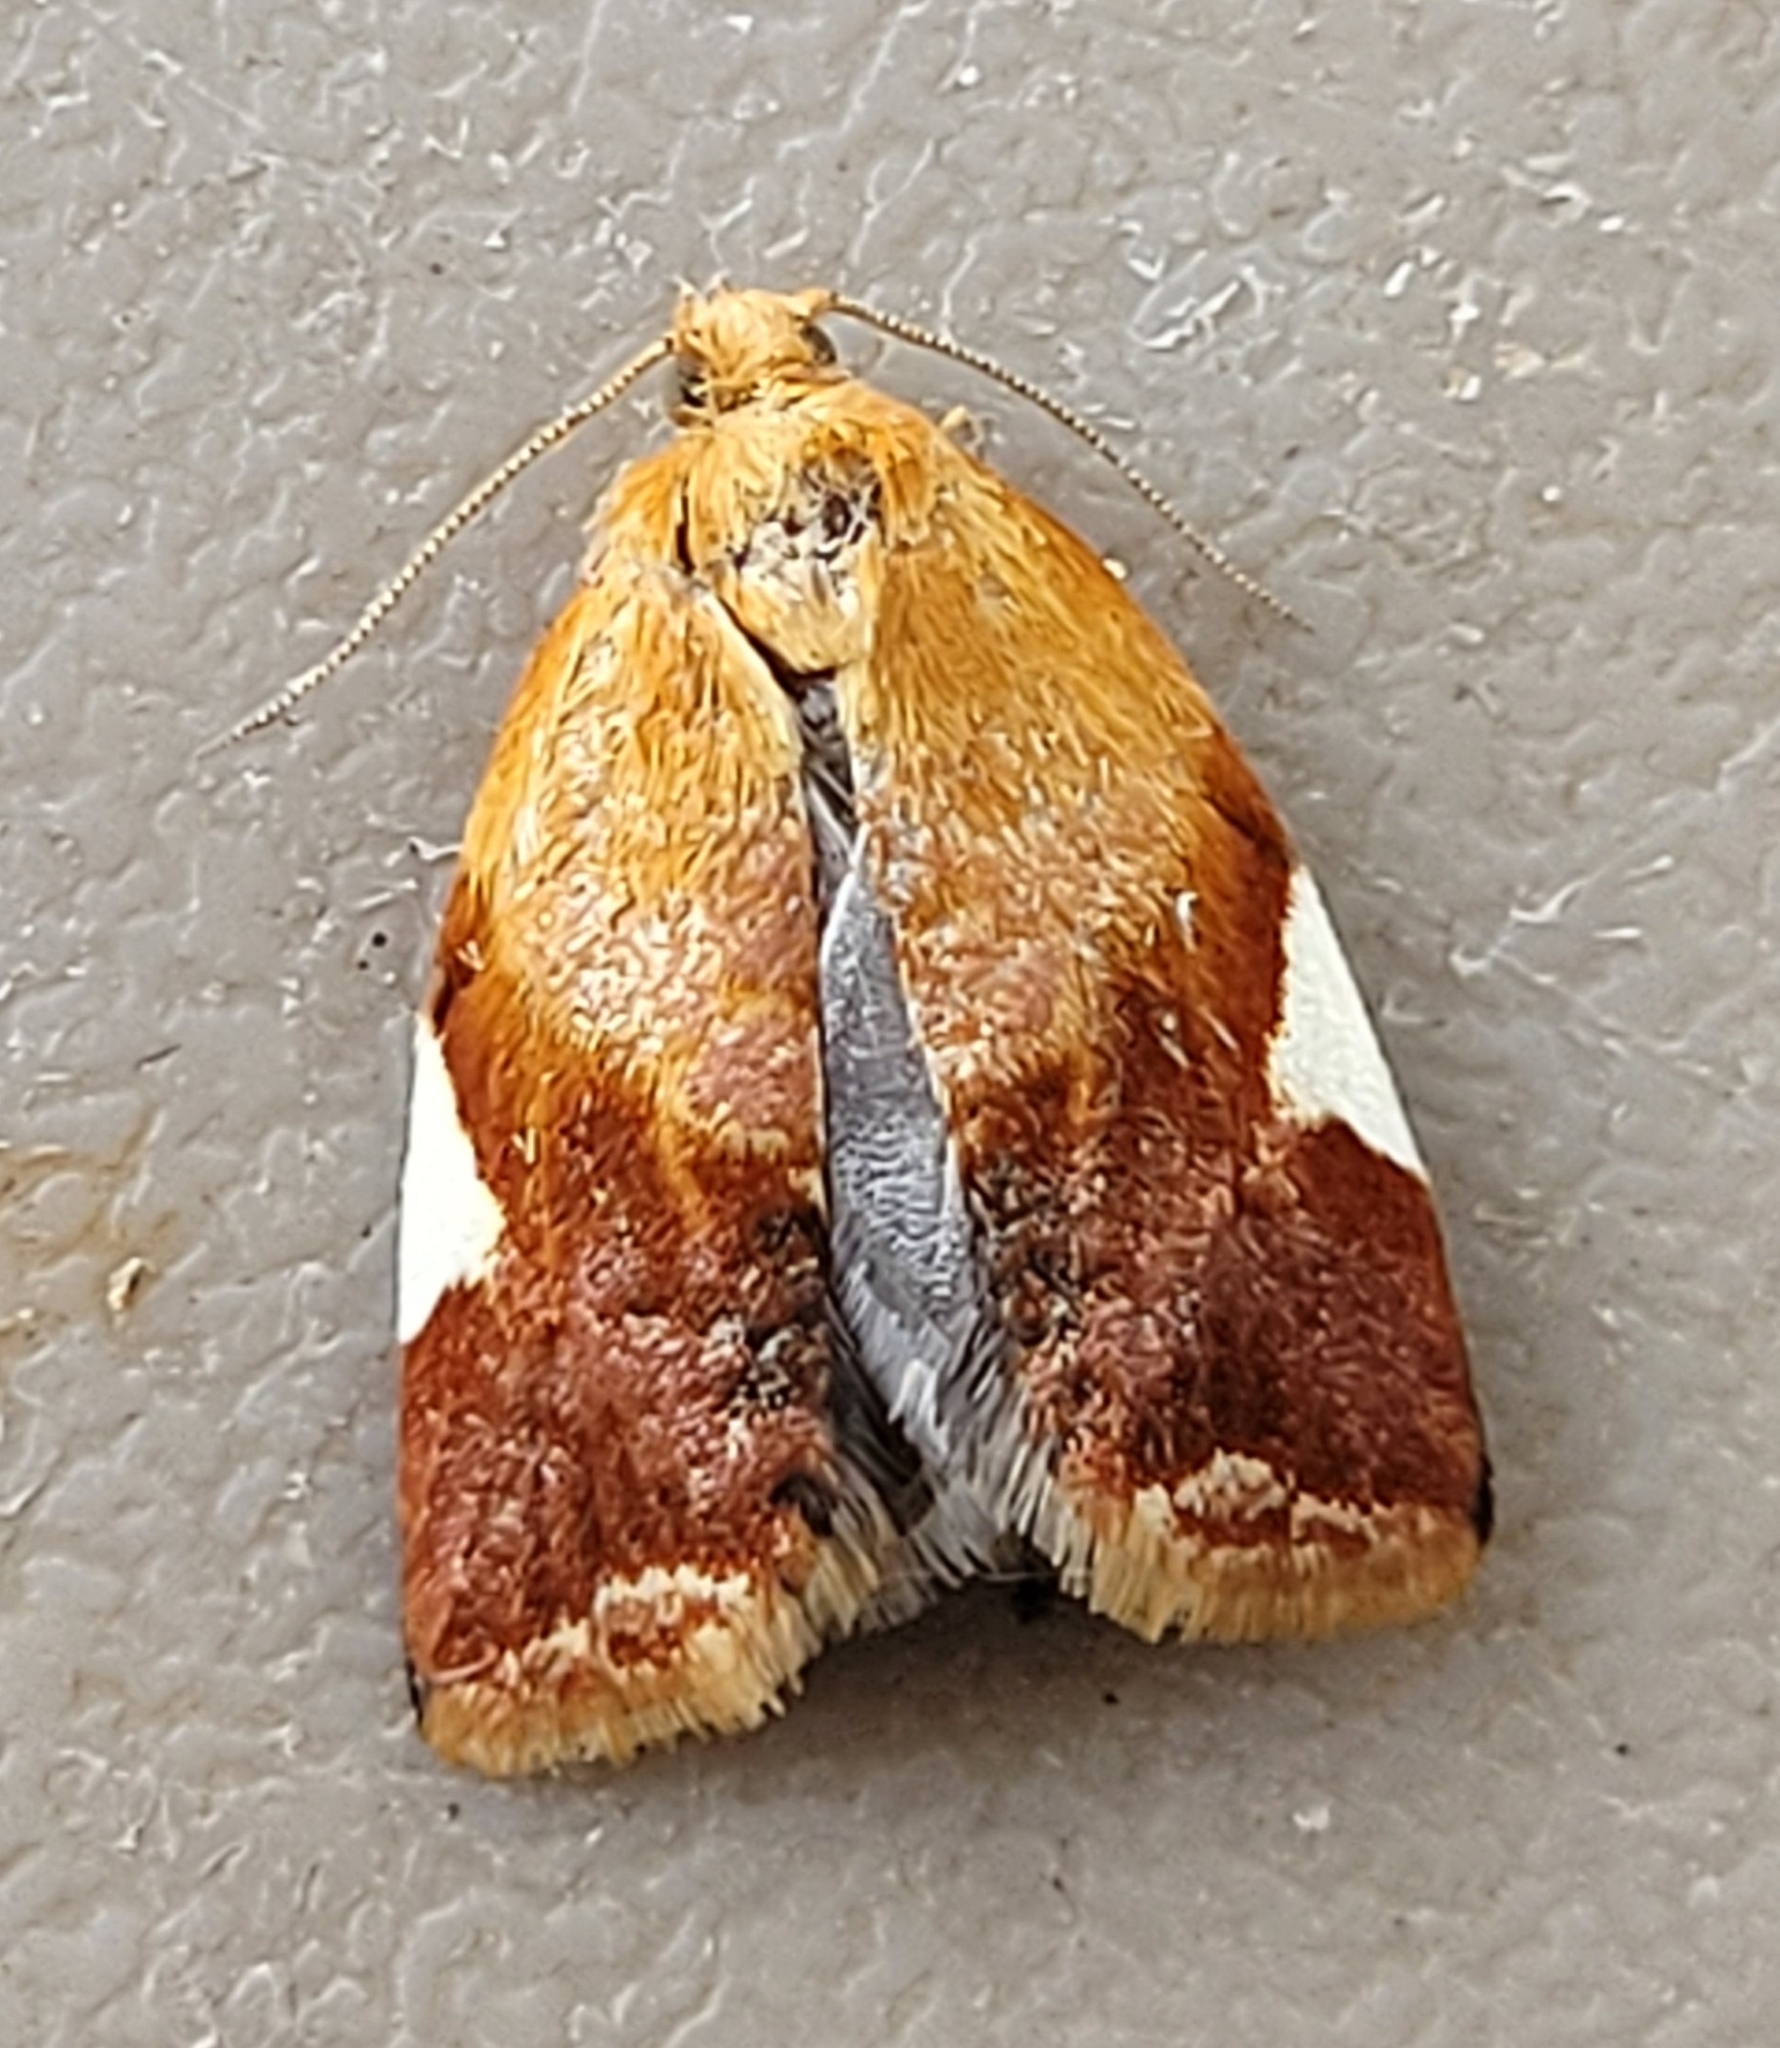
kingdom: Animalia
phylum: Arthropoda
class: Insecta
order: Lepidoptera
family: Tortricidae
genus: Clepsis
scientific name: Clepsis persicana
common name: White triangle tortrix
